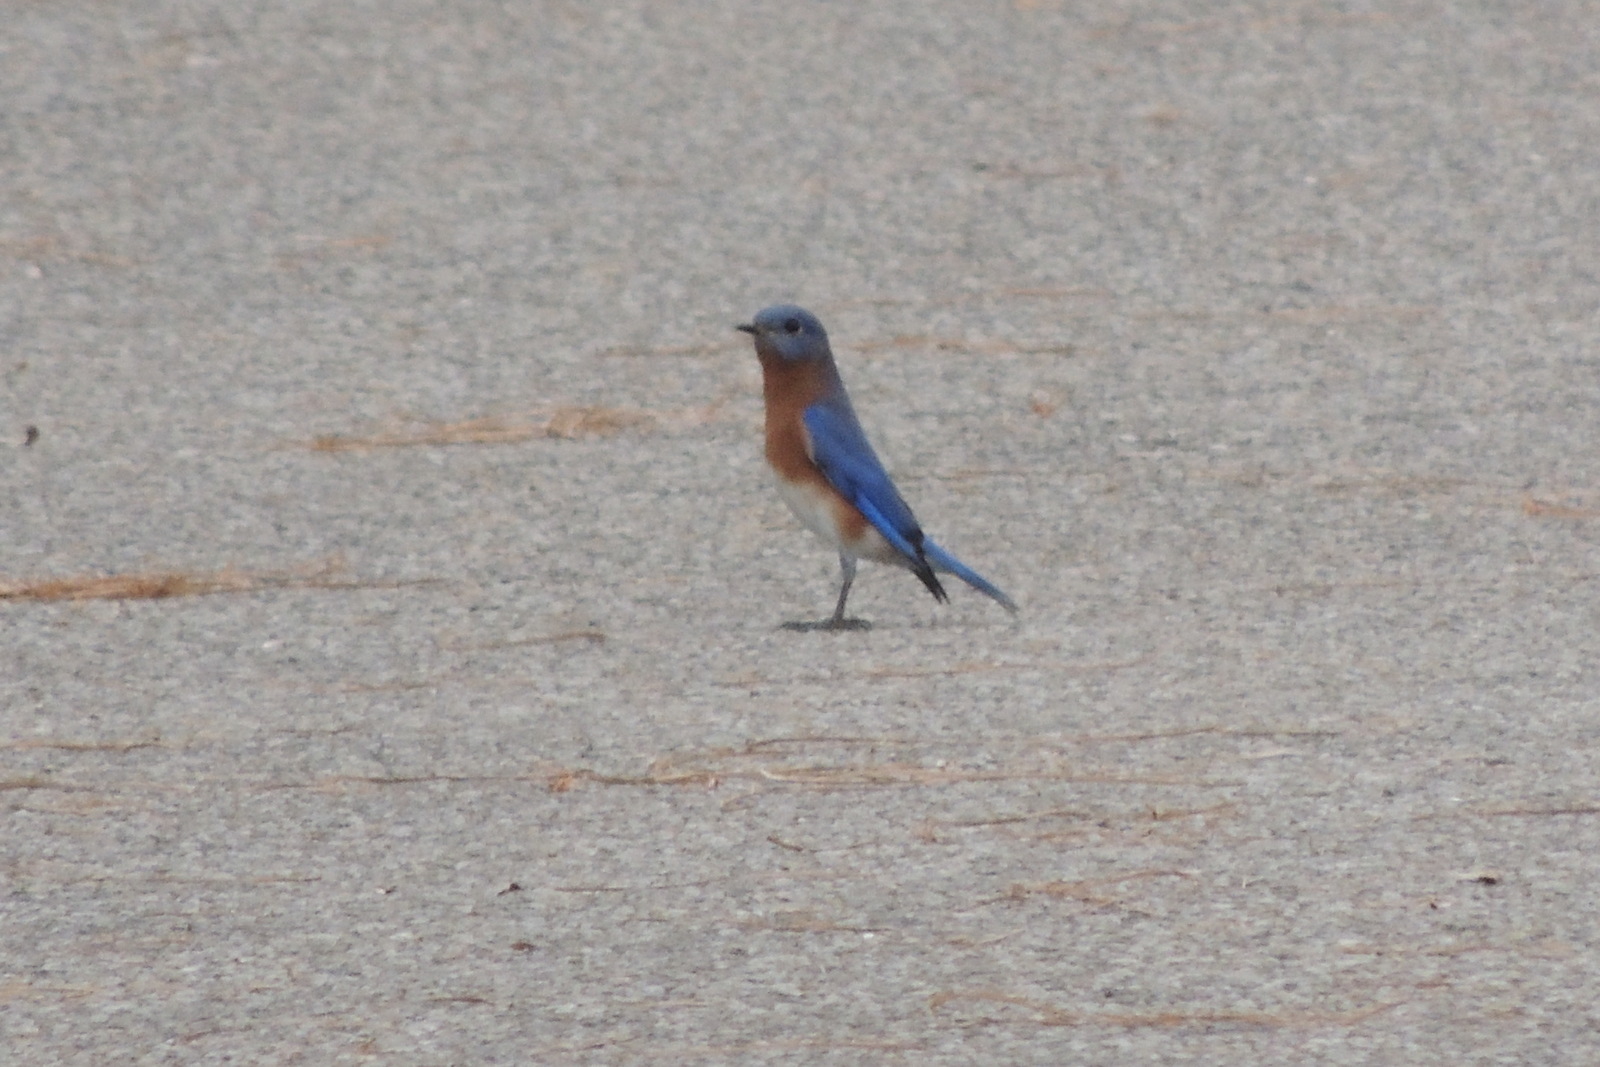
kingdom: Animalia
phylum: Chordata
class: Aves
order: Passeriformes
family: Turdidae
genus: Sialia
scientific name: Sialia sialis
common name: Eastern bluebird
